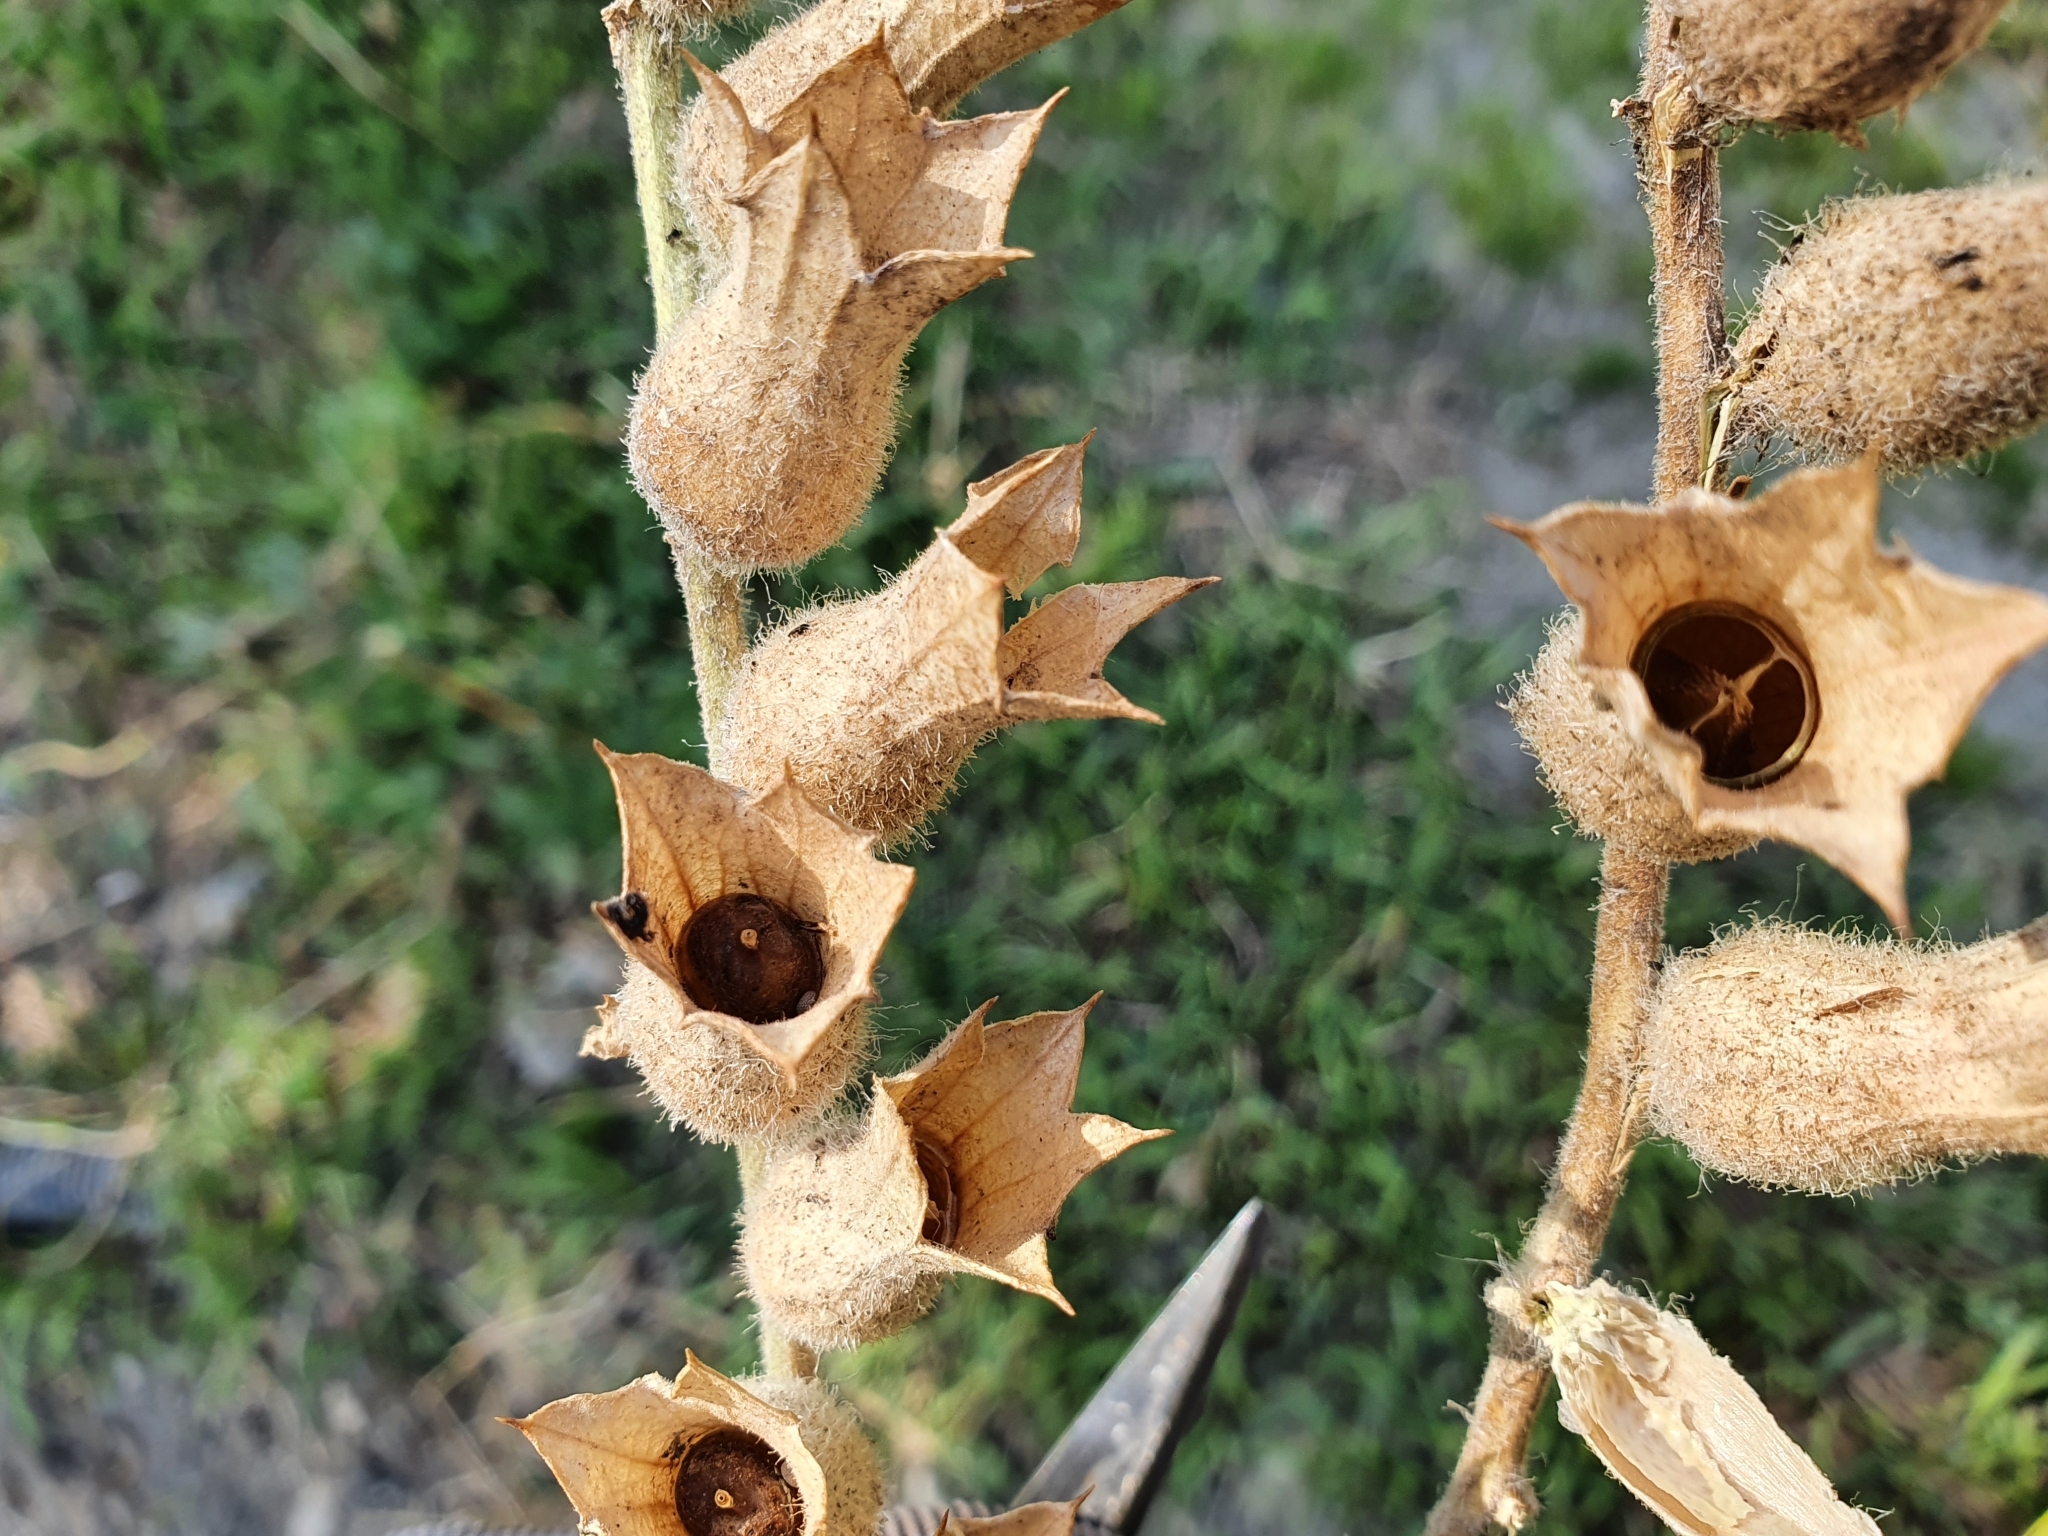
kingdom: Plantae
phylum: Tracheophyta
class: Magnoliopsida
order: Solanales
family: Solanaceae
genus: Hyoscyamus
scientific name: Hyoscyamus niger
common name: Henbane
